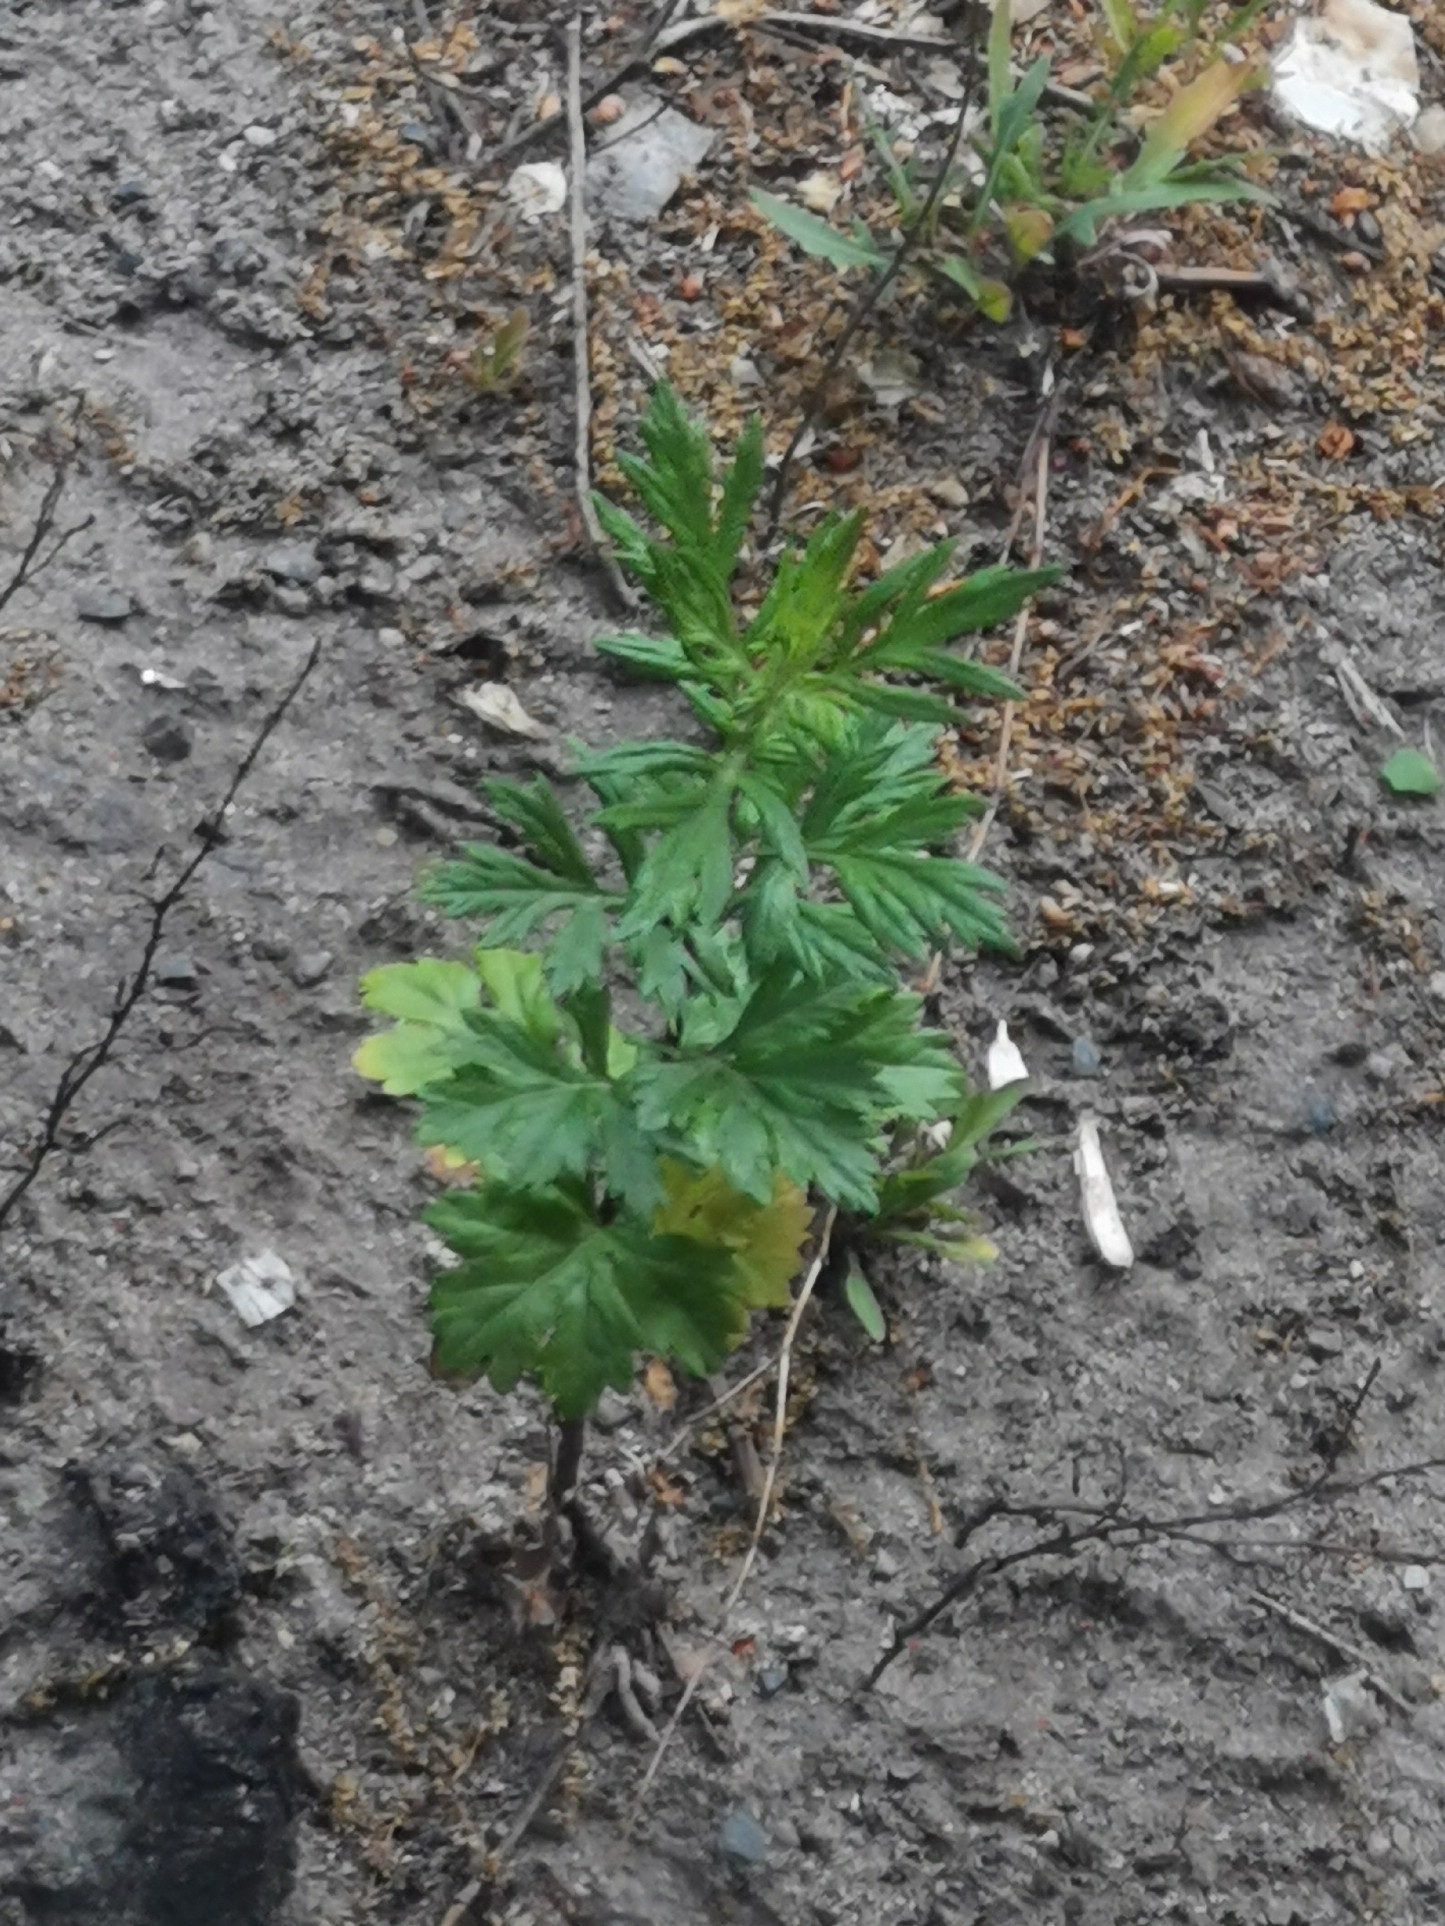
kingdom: Plantae
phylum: Tracheophyta
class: Magnoliopsida
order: Asterales
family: Asteraceae
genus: Artemisia
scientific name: Artemisia vulgaris
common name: Mugwort
